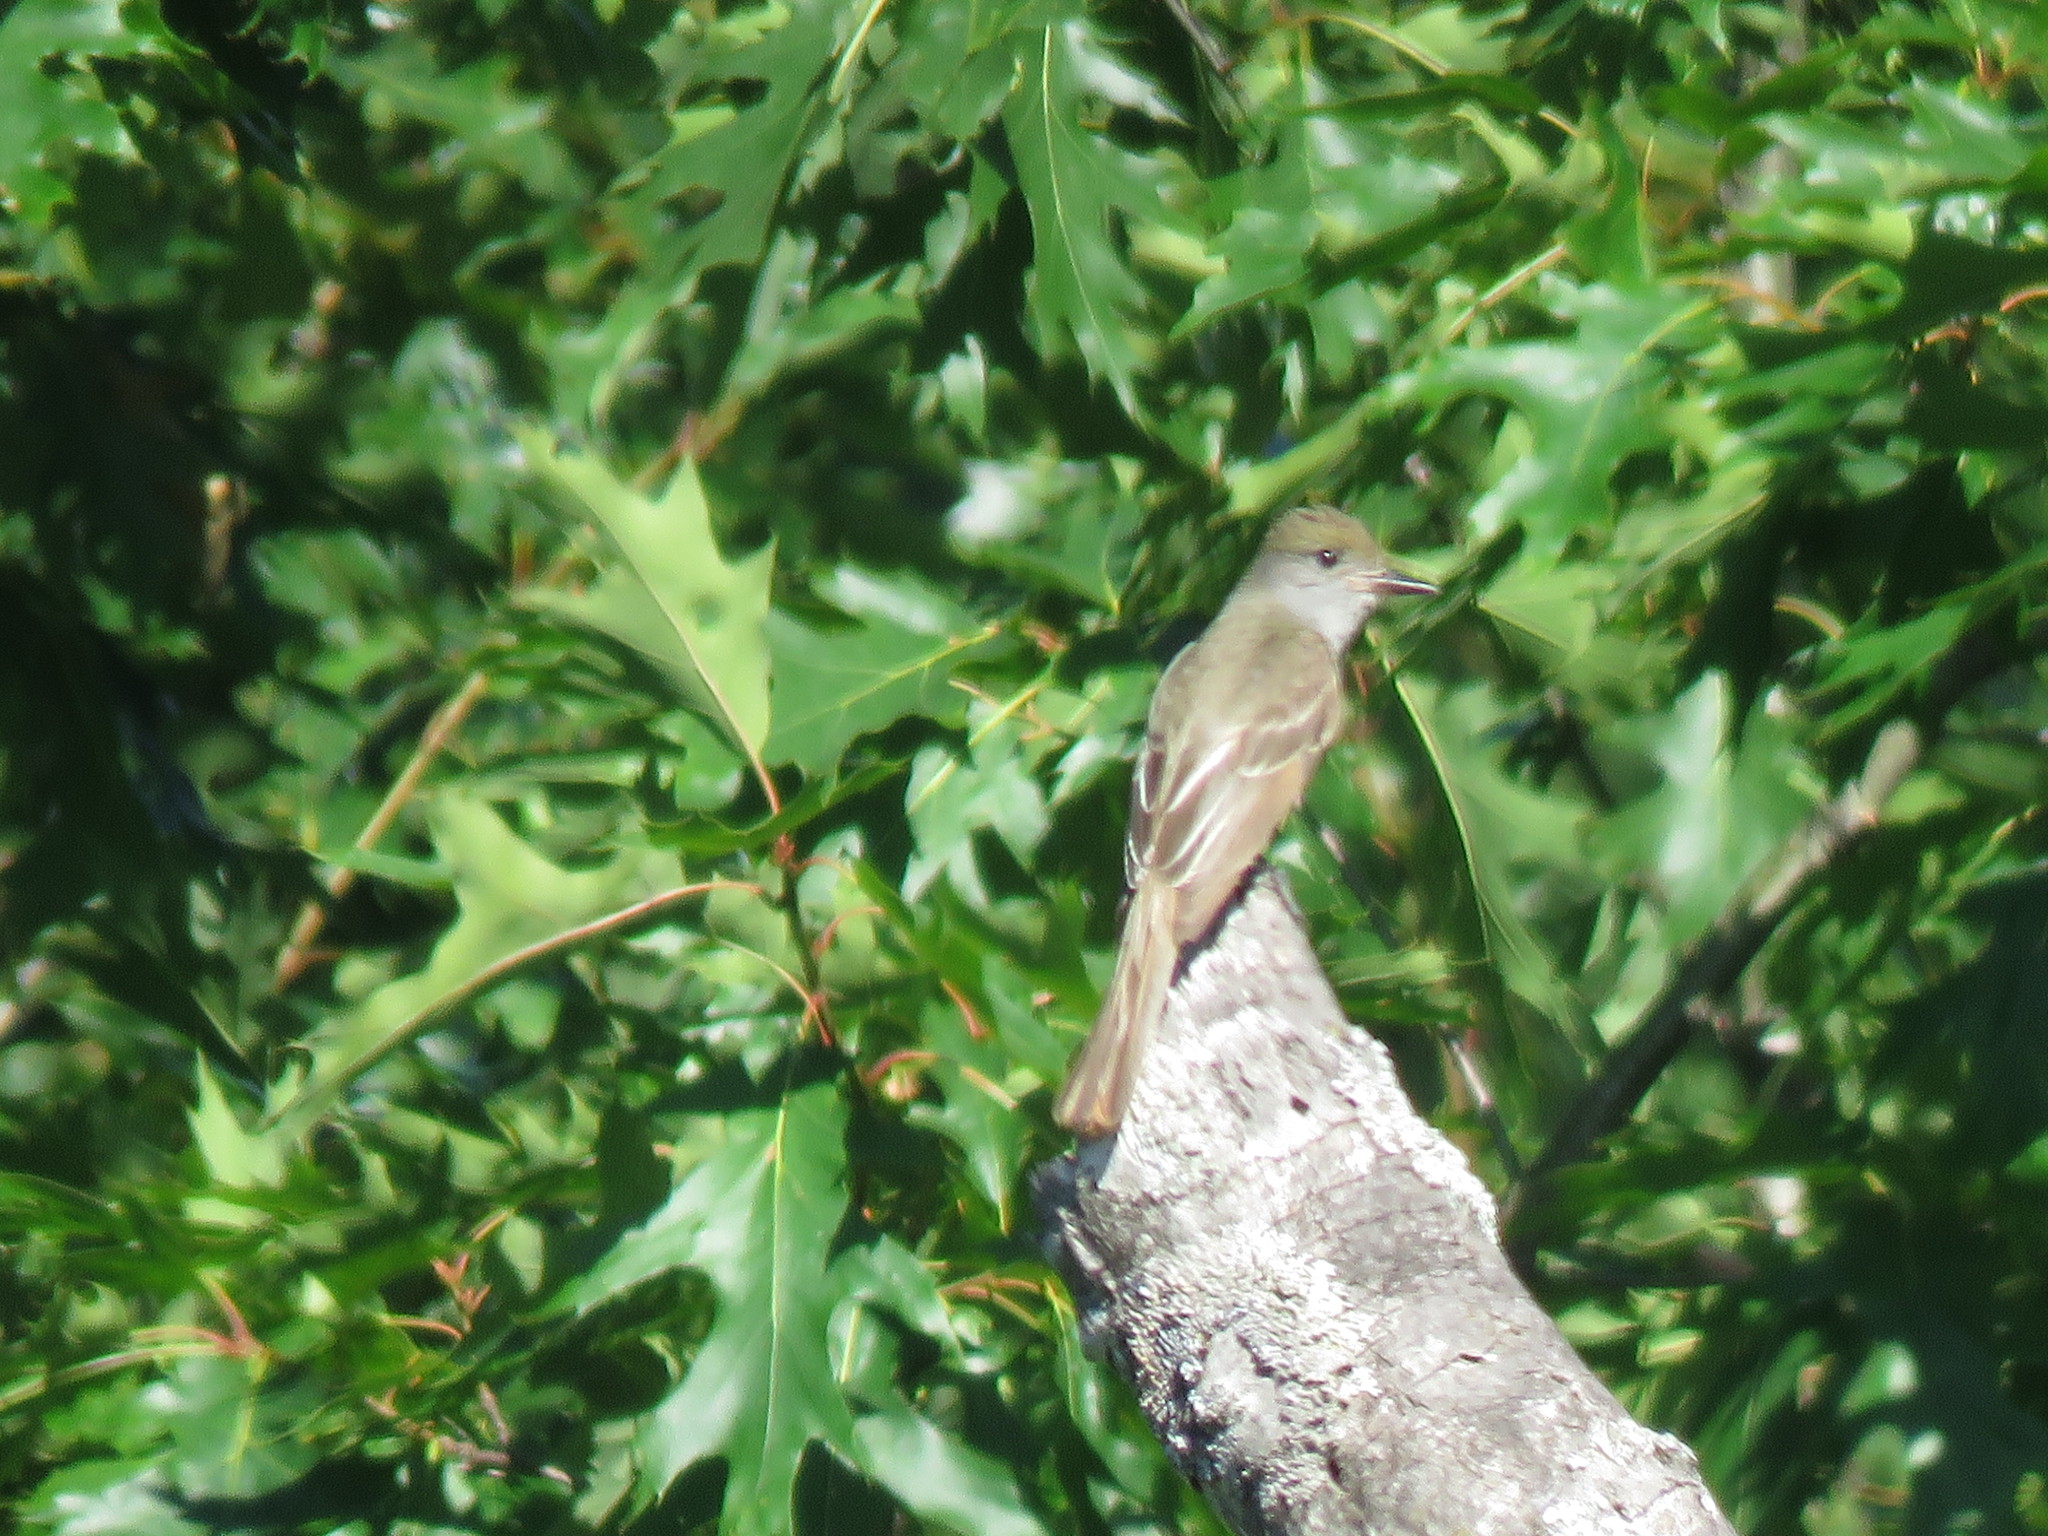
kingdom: Animalia
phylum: Chordata
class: Aves
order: Passeriformes
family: Tyrannidae
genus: Myiarchus
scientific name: Myiarchus crinitus
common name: Great crested flycatcher
